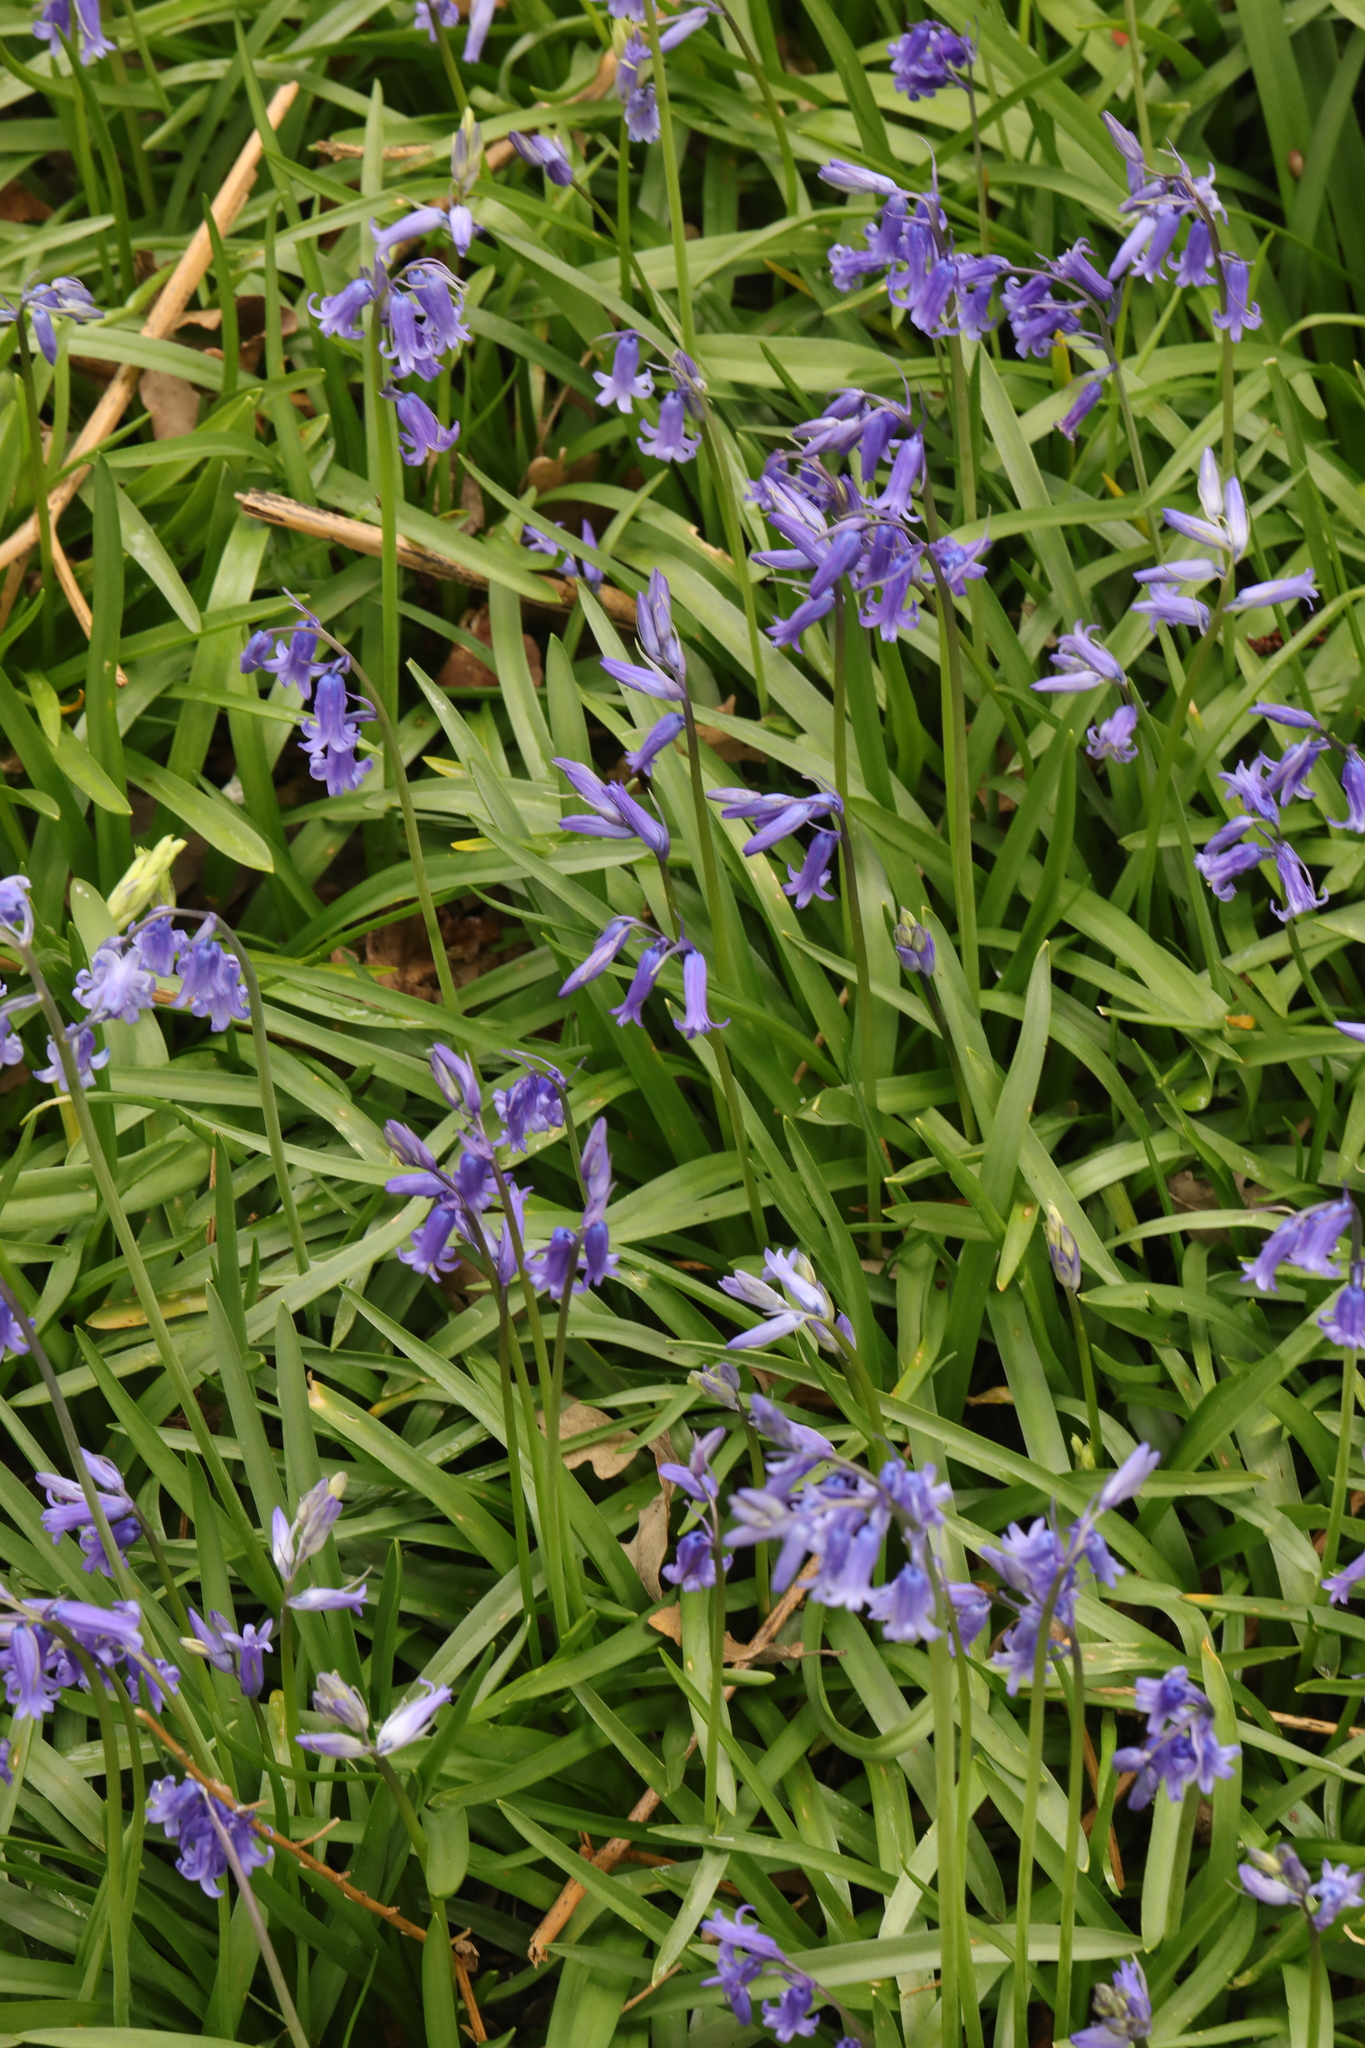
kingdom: Plantae
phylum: Tracheophyta
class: Liliopsida
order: Asparagales
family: Asparagaceae
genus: Hyacinthoides
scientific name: Hyacinthoides non-scripta
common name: Bluebell
